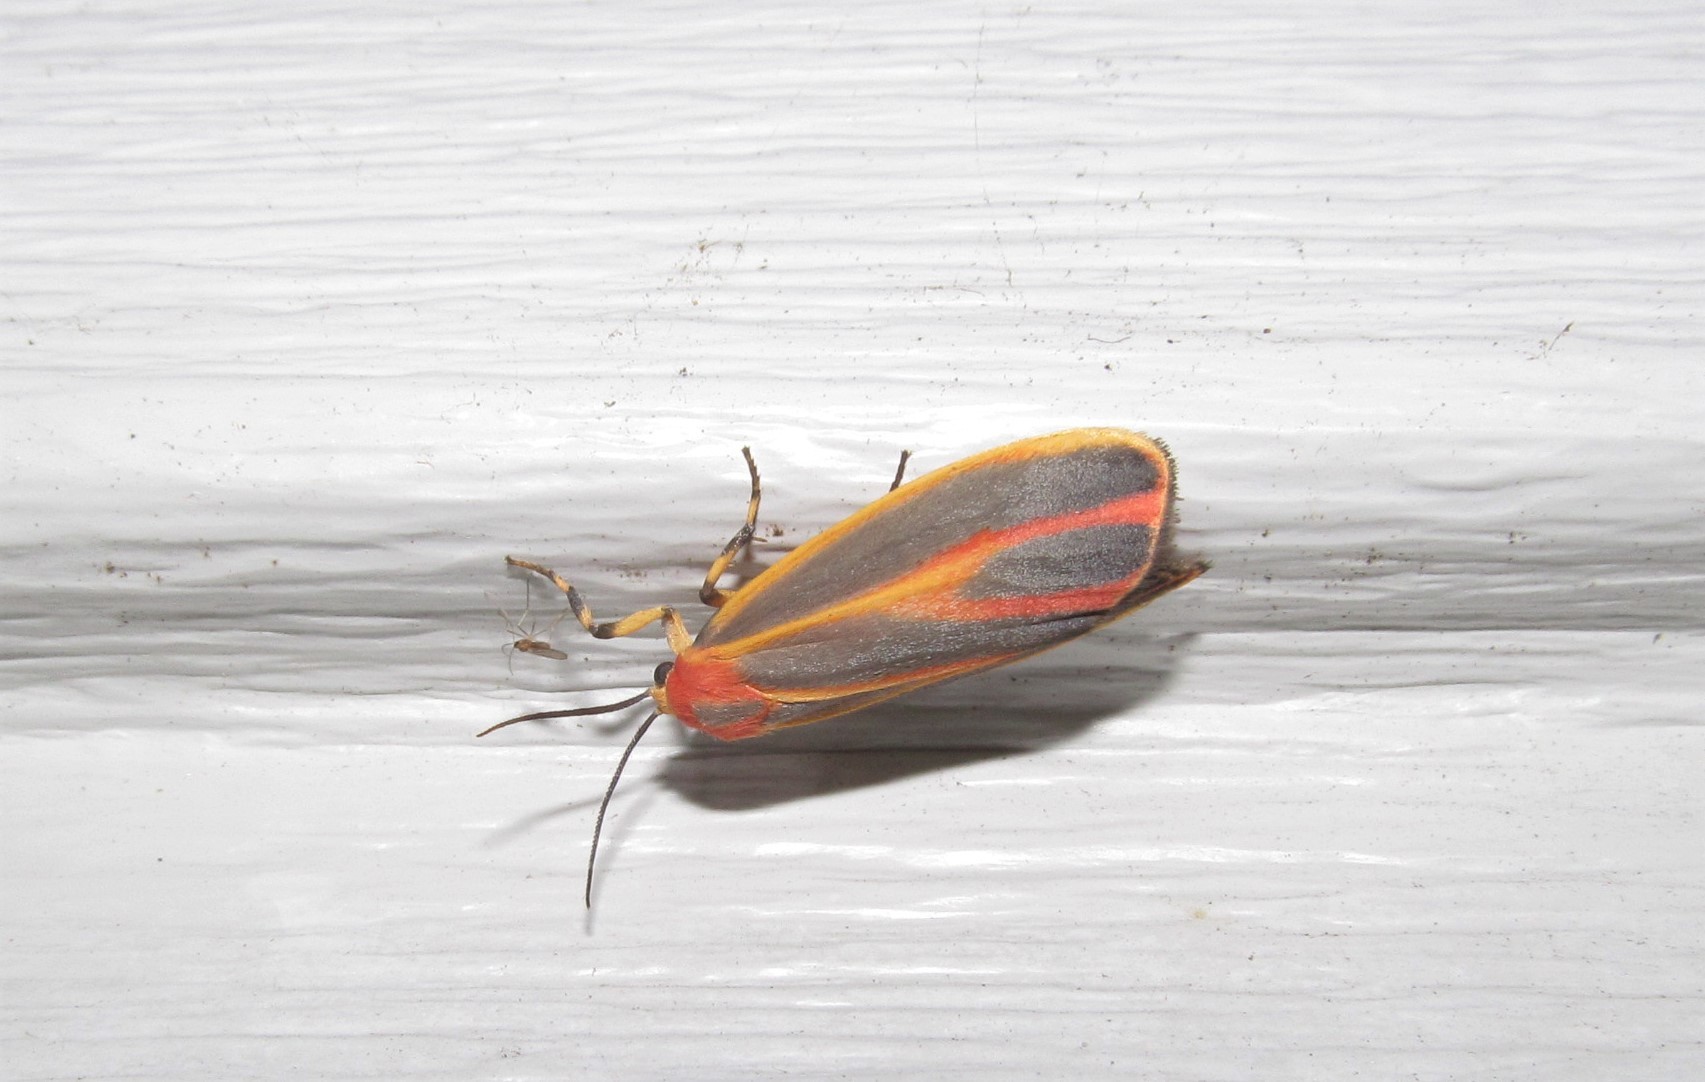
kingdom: Animalia
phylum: Arthropoda
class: Insecta
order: Lepidoptera
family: Erebidae
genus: Hypoprepia
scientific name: Hypoprepia fucosa
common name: Painted lichen moth
